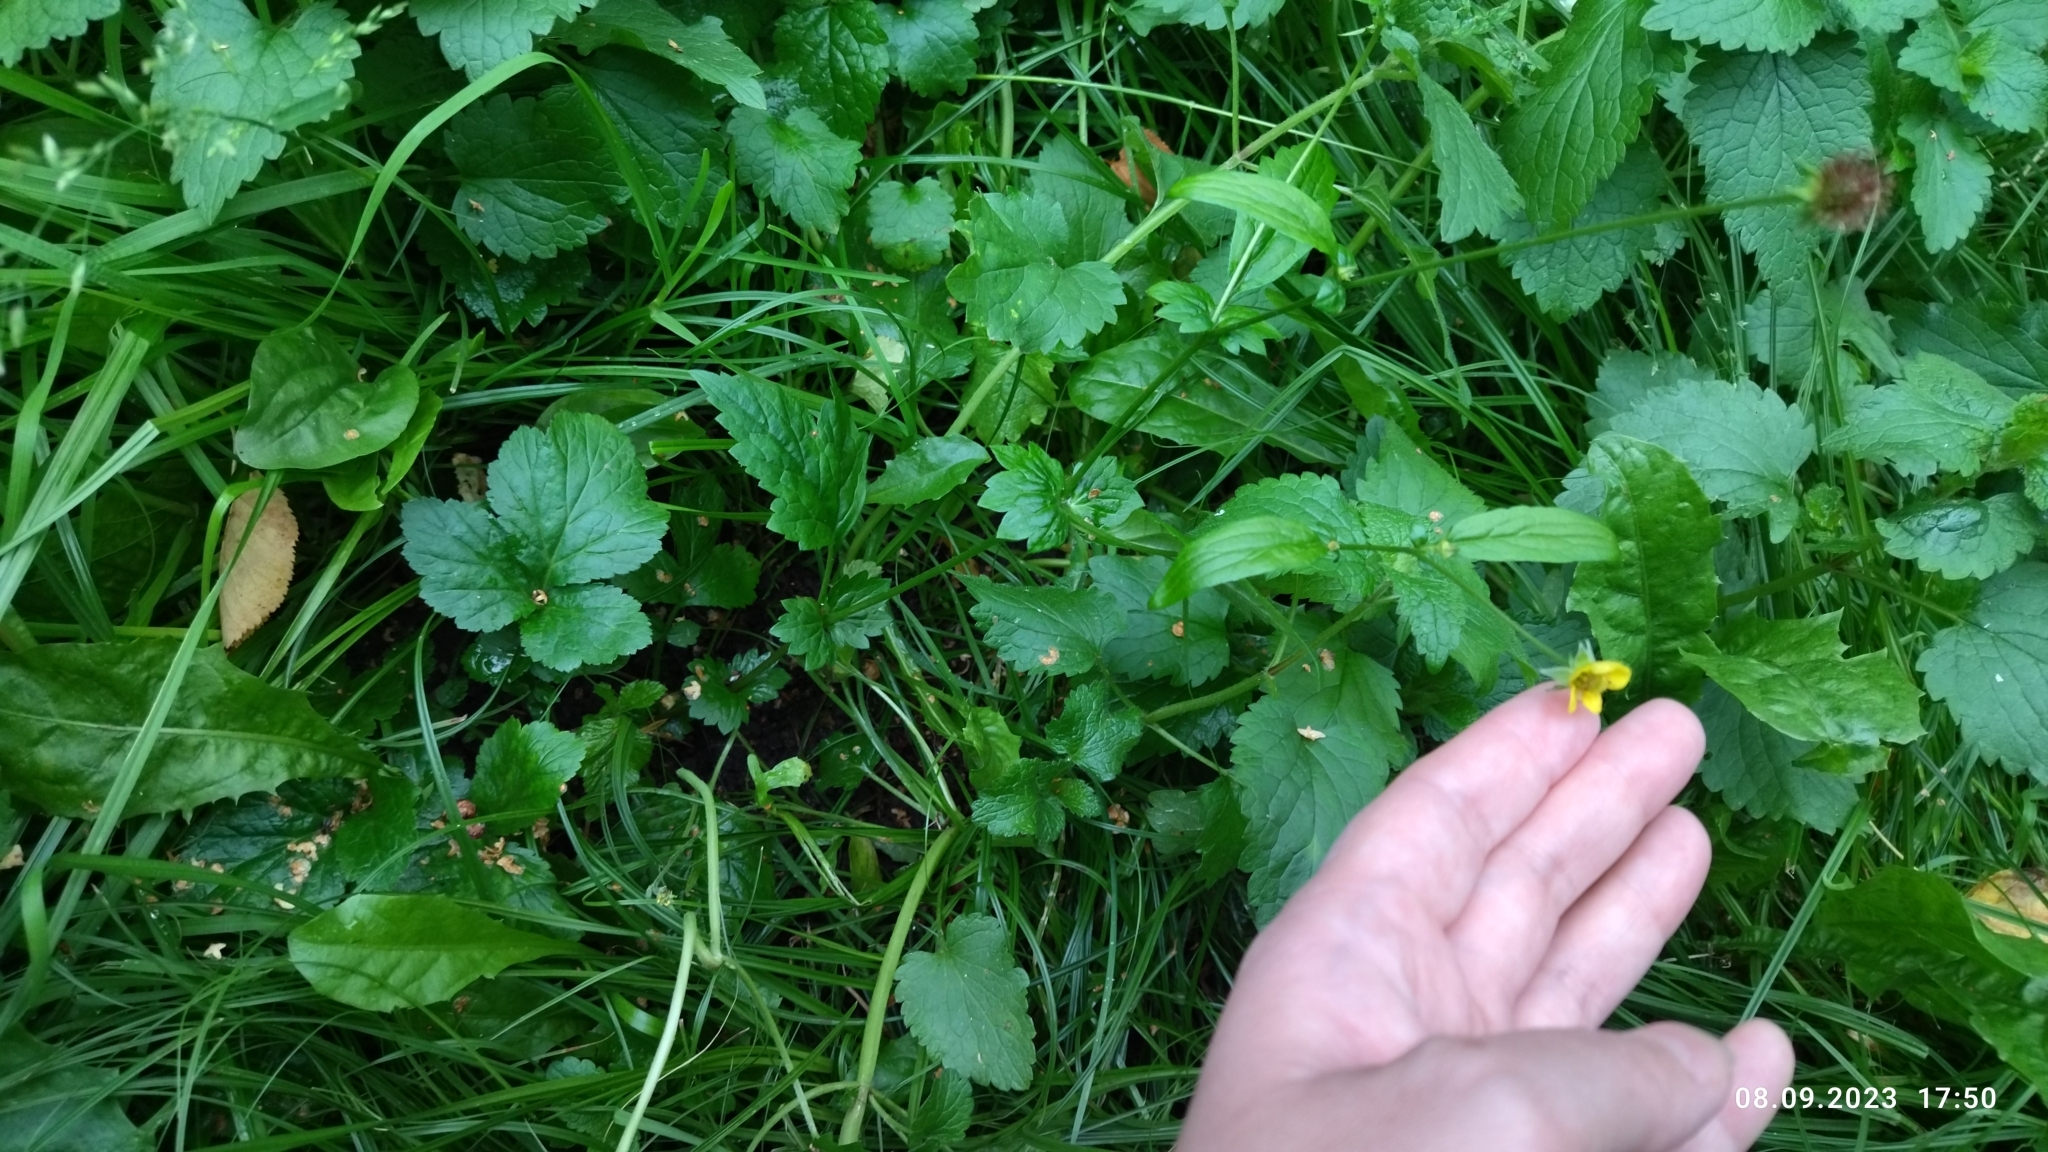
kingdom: Plantae
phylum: Tracheophyta
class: Magnoliopsida
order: Rosales
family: Rosaceae
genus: Geum
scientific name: Geum urbanum
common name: Wood avens
